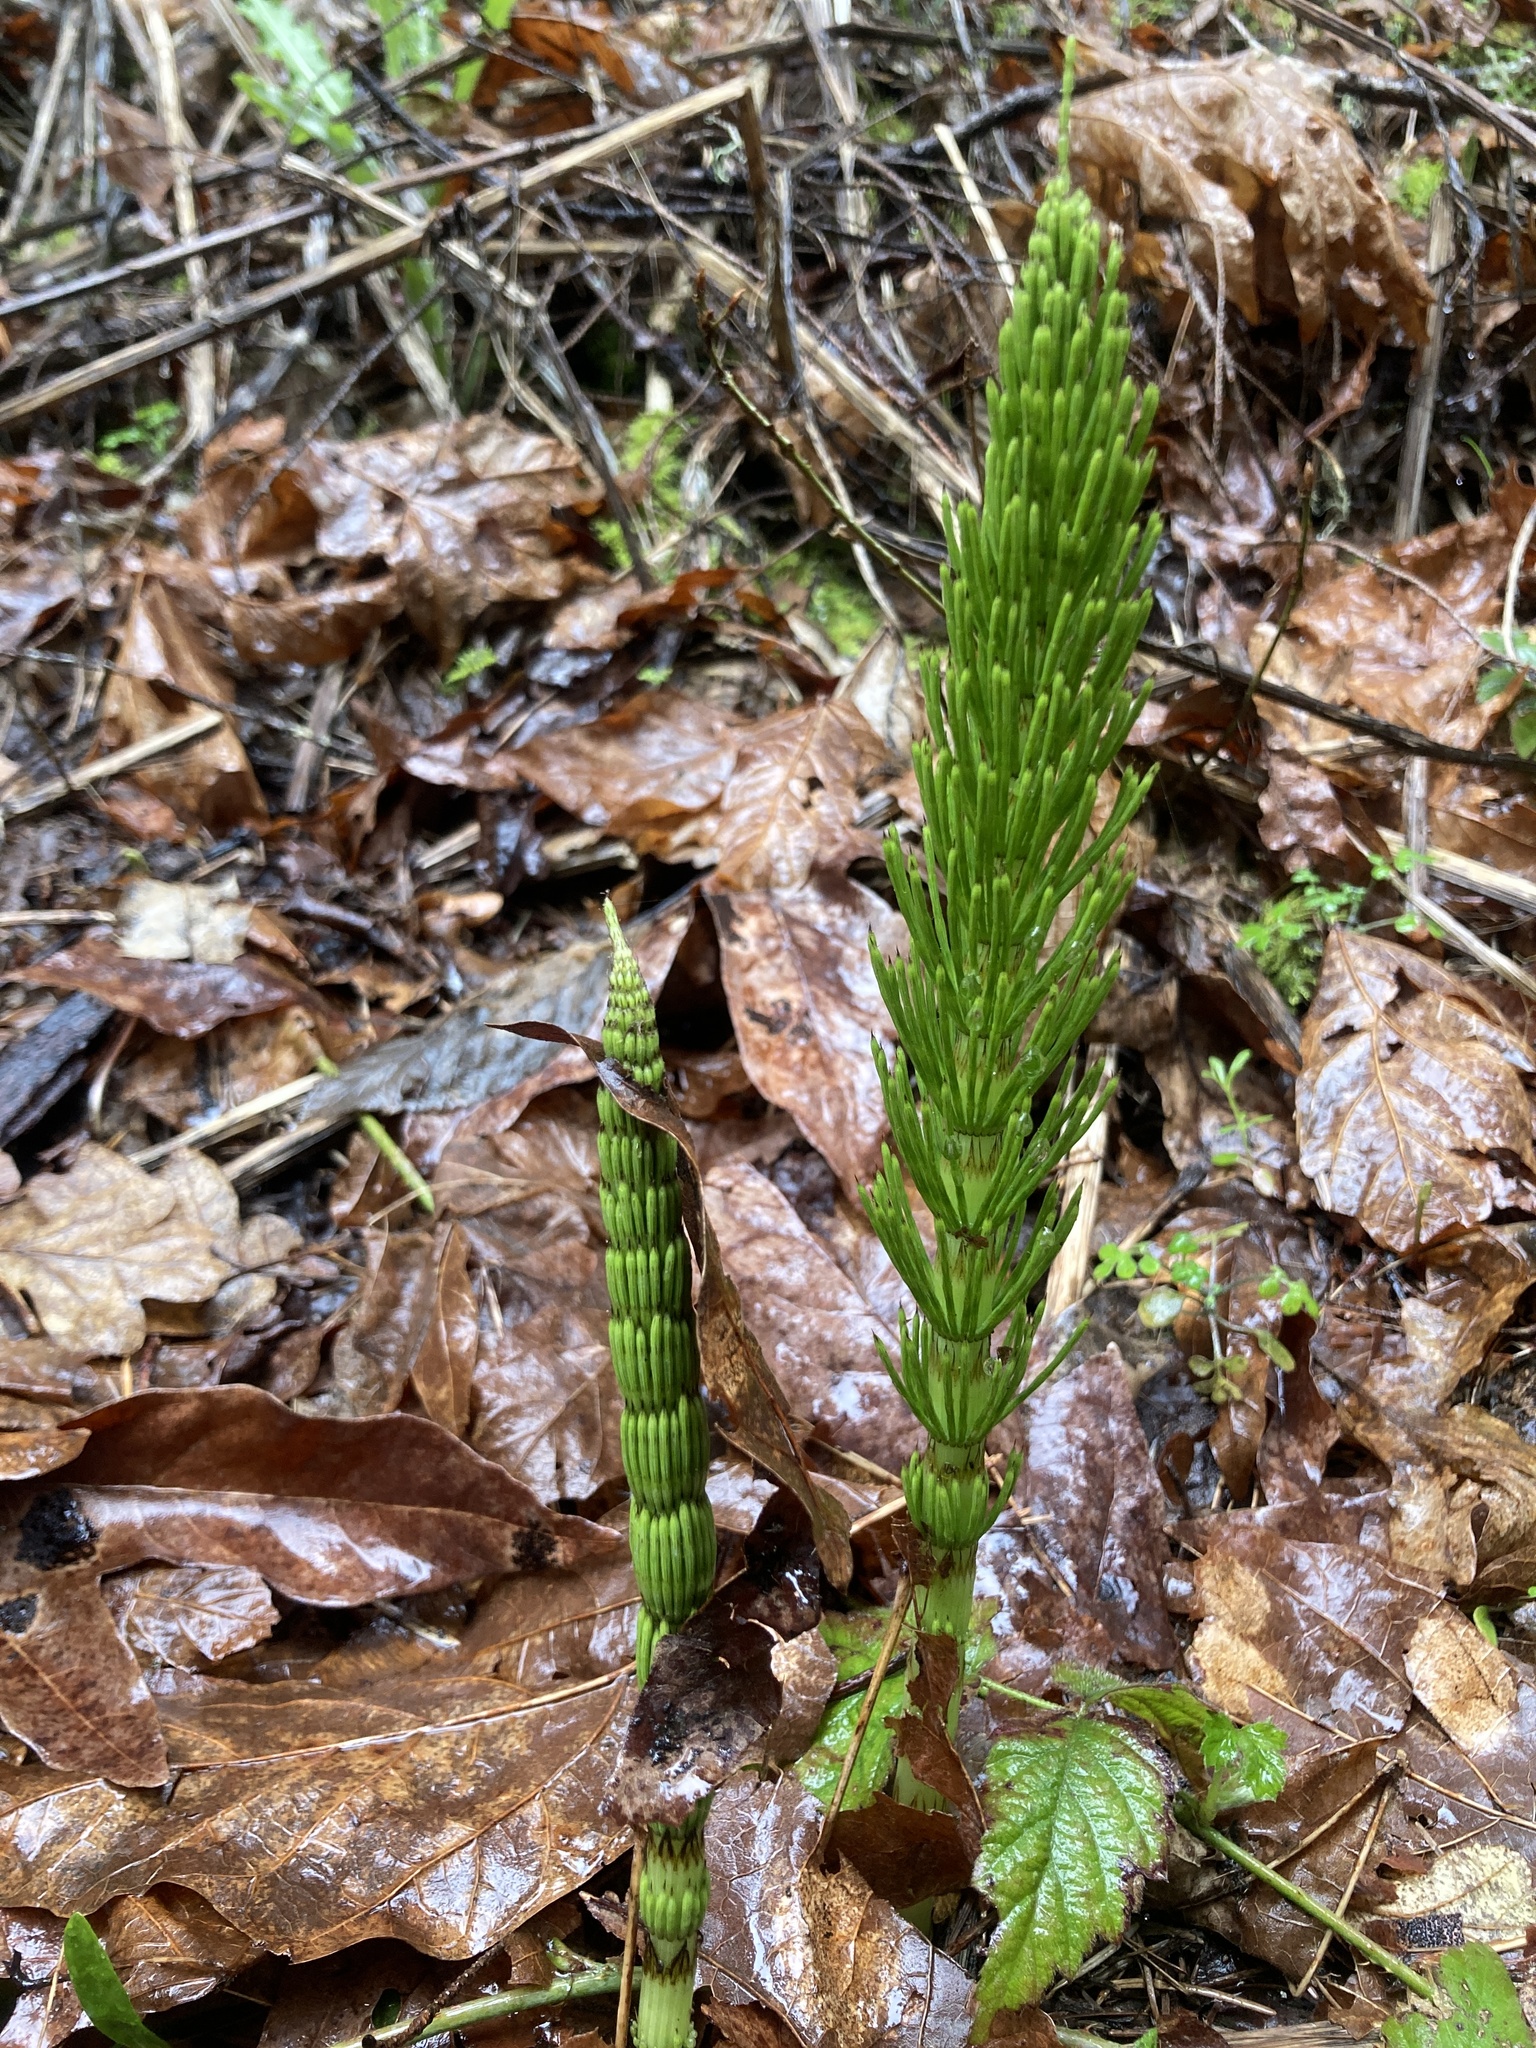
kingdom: Plantae
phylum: Tracheophyta
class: Polypodiopsida
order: Equisetales
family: Equisetaceae
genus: Equisetum
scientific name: Equisetum braunii
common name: Braun's horsetail
